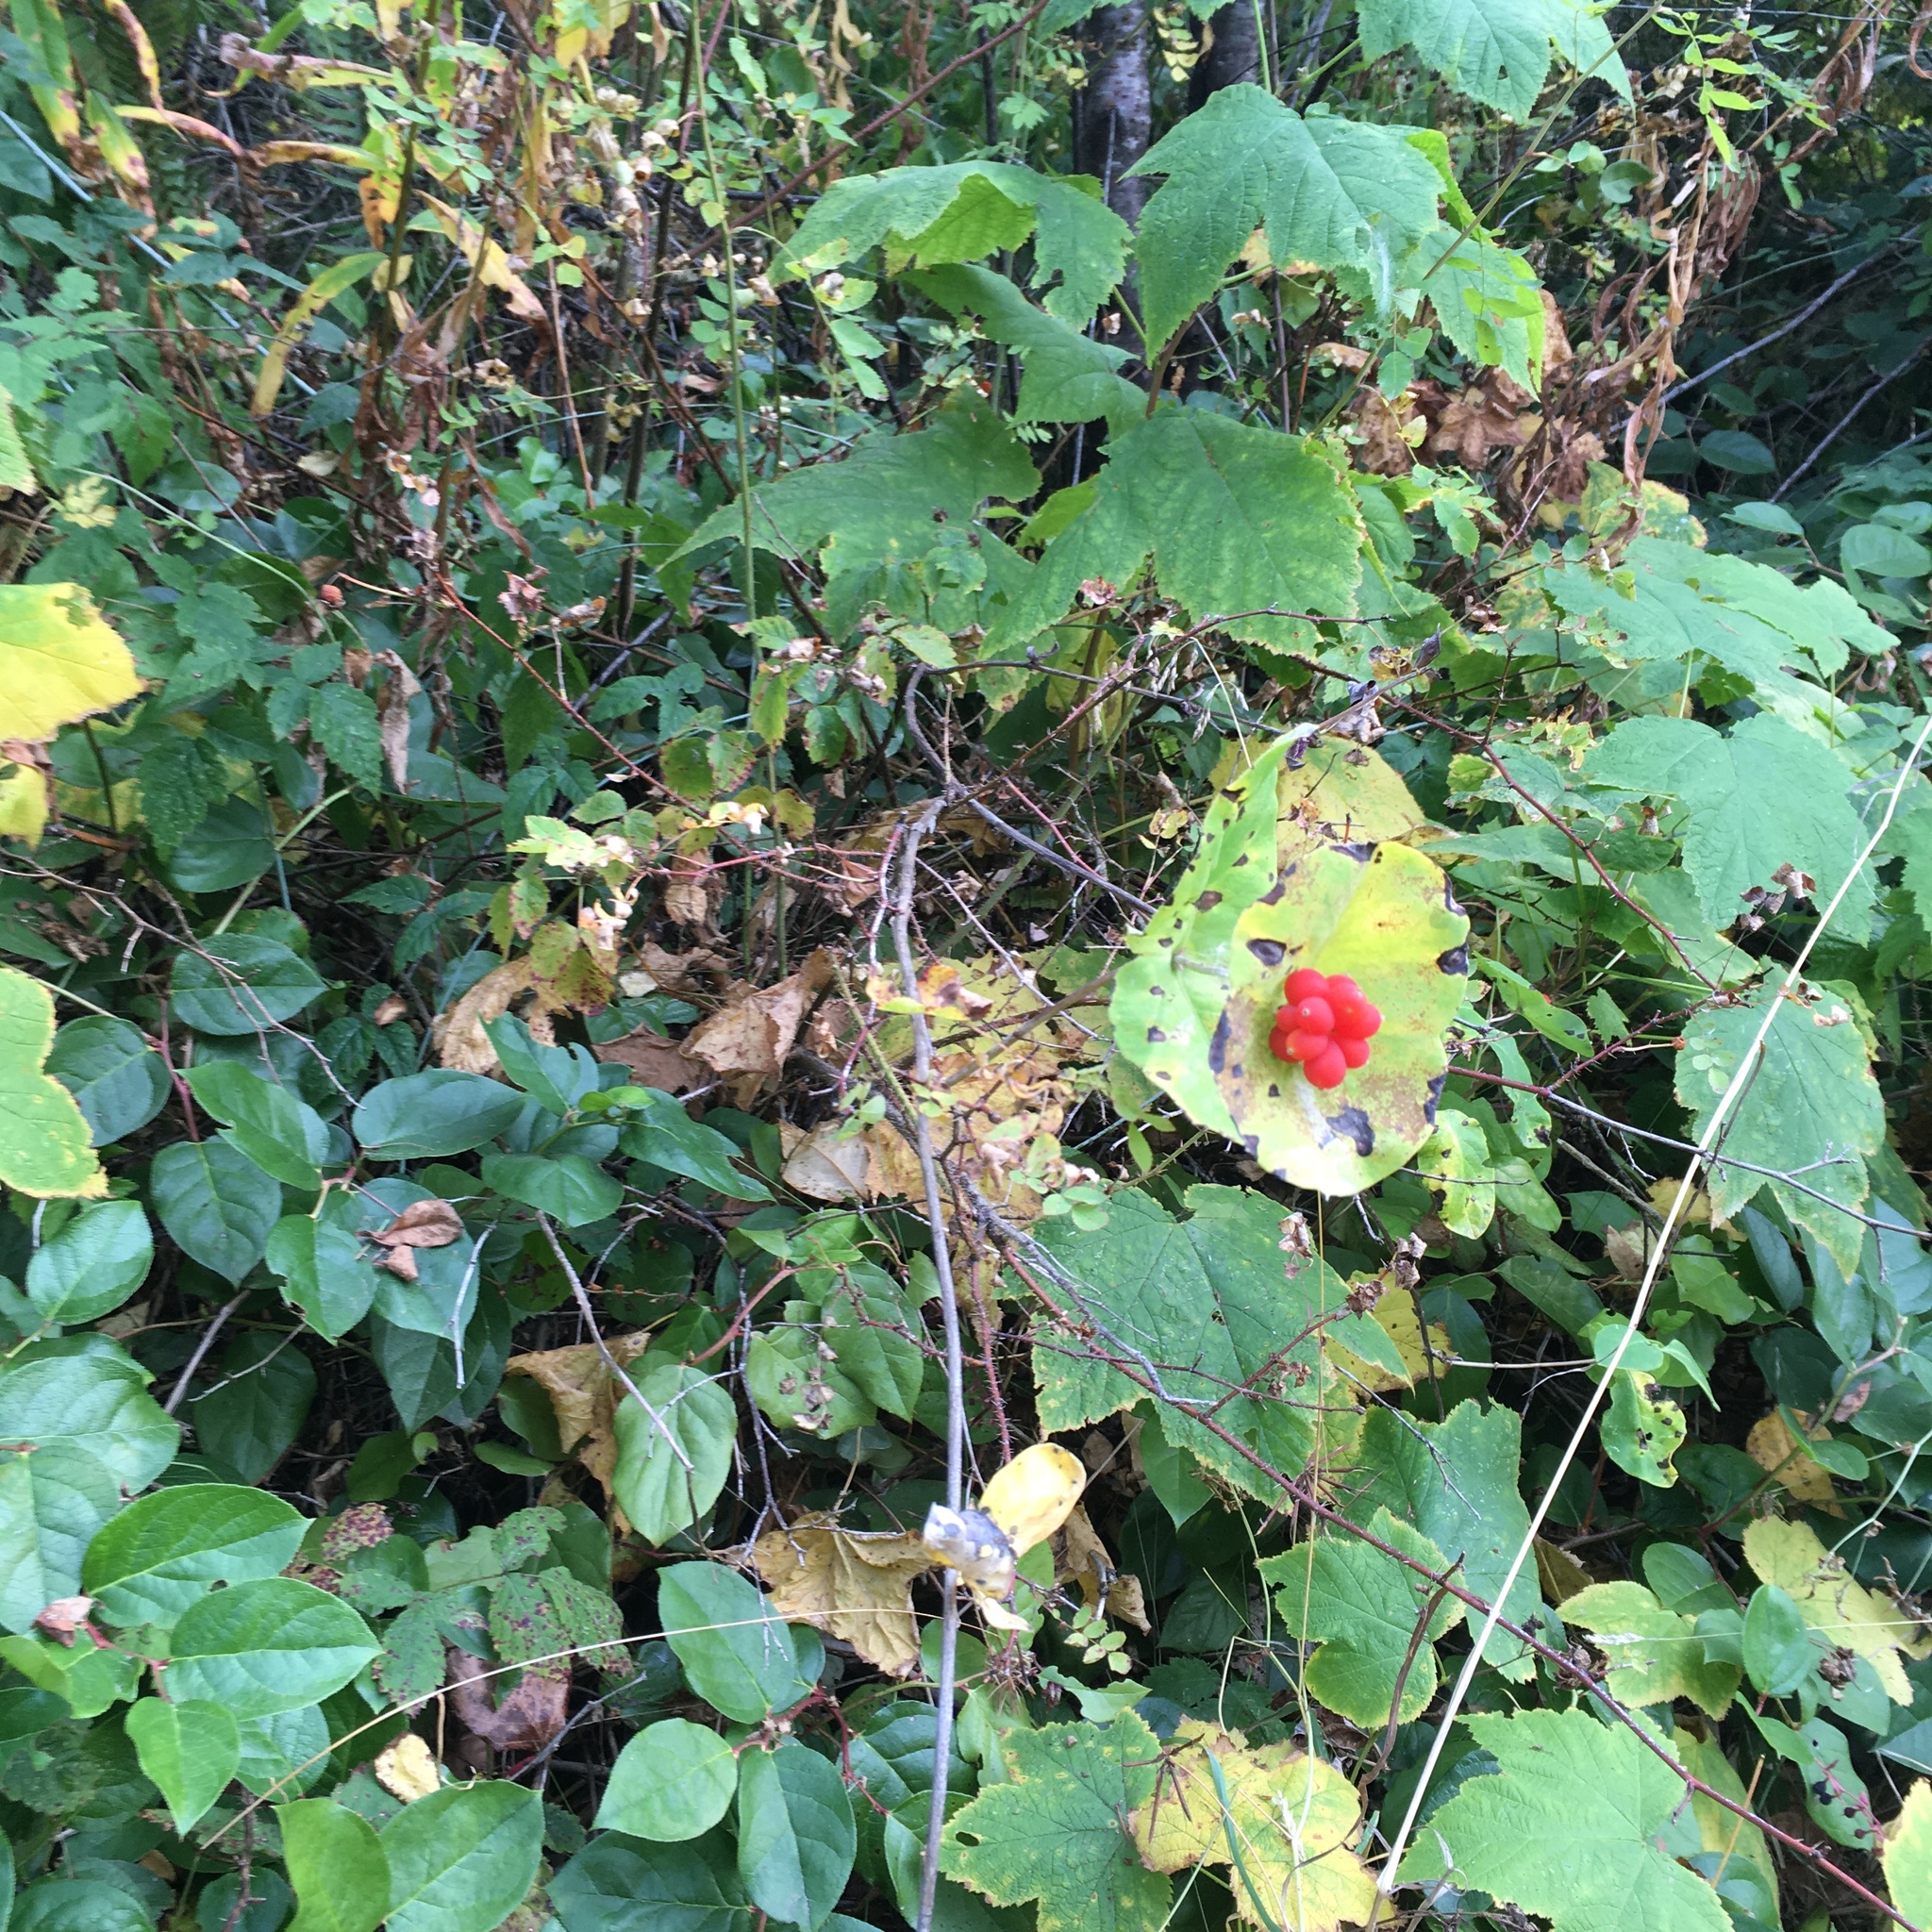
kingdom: Plantae
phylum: Tracheophyta
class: Magnoliopsida
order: Dipsacales
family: Caprifoliaceae
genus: Lonicera
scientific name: Lonicera ciliosa
